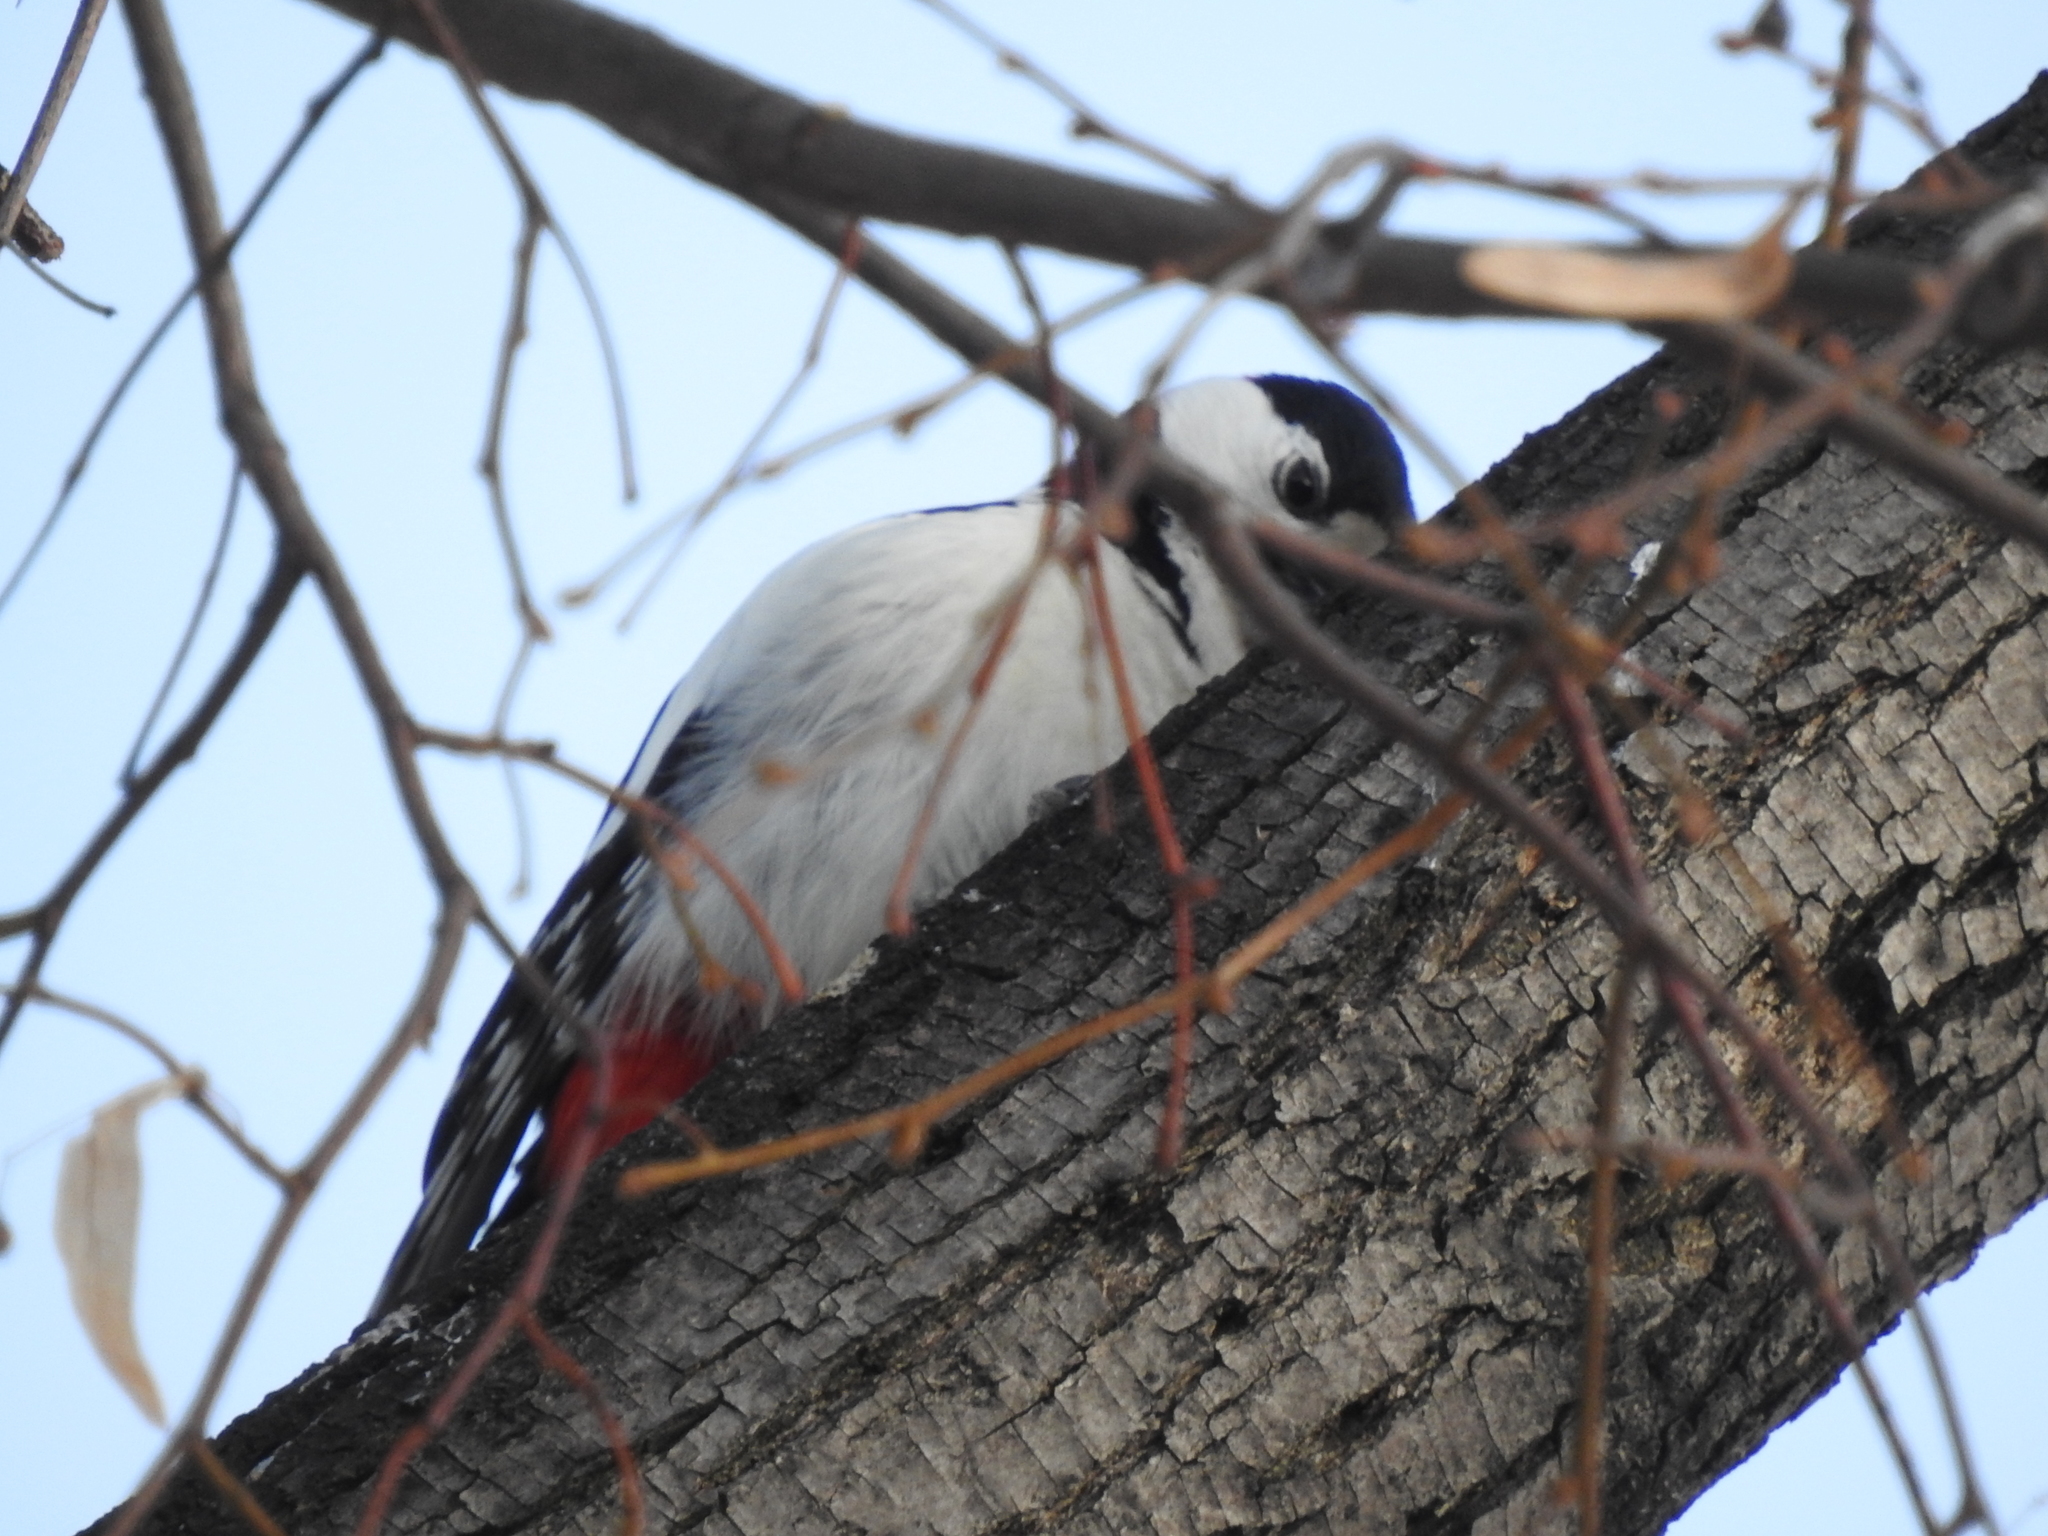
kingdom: Animalia
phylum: Chordata
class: Aves
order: Piciformes
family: Picidae
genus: Dendrocopos
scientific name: Dendrocopos major
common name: Great spotted woodpecker
